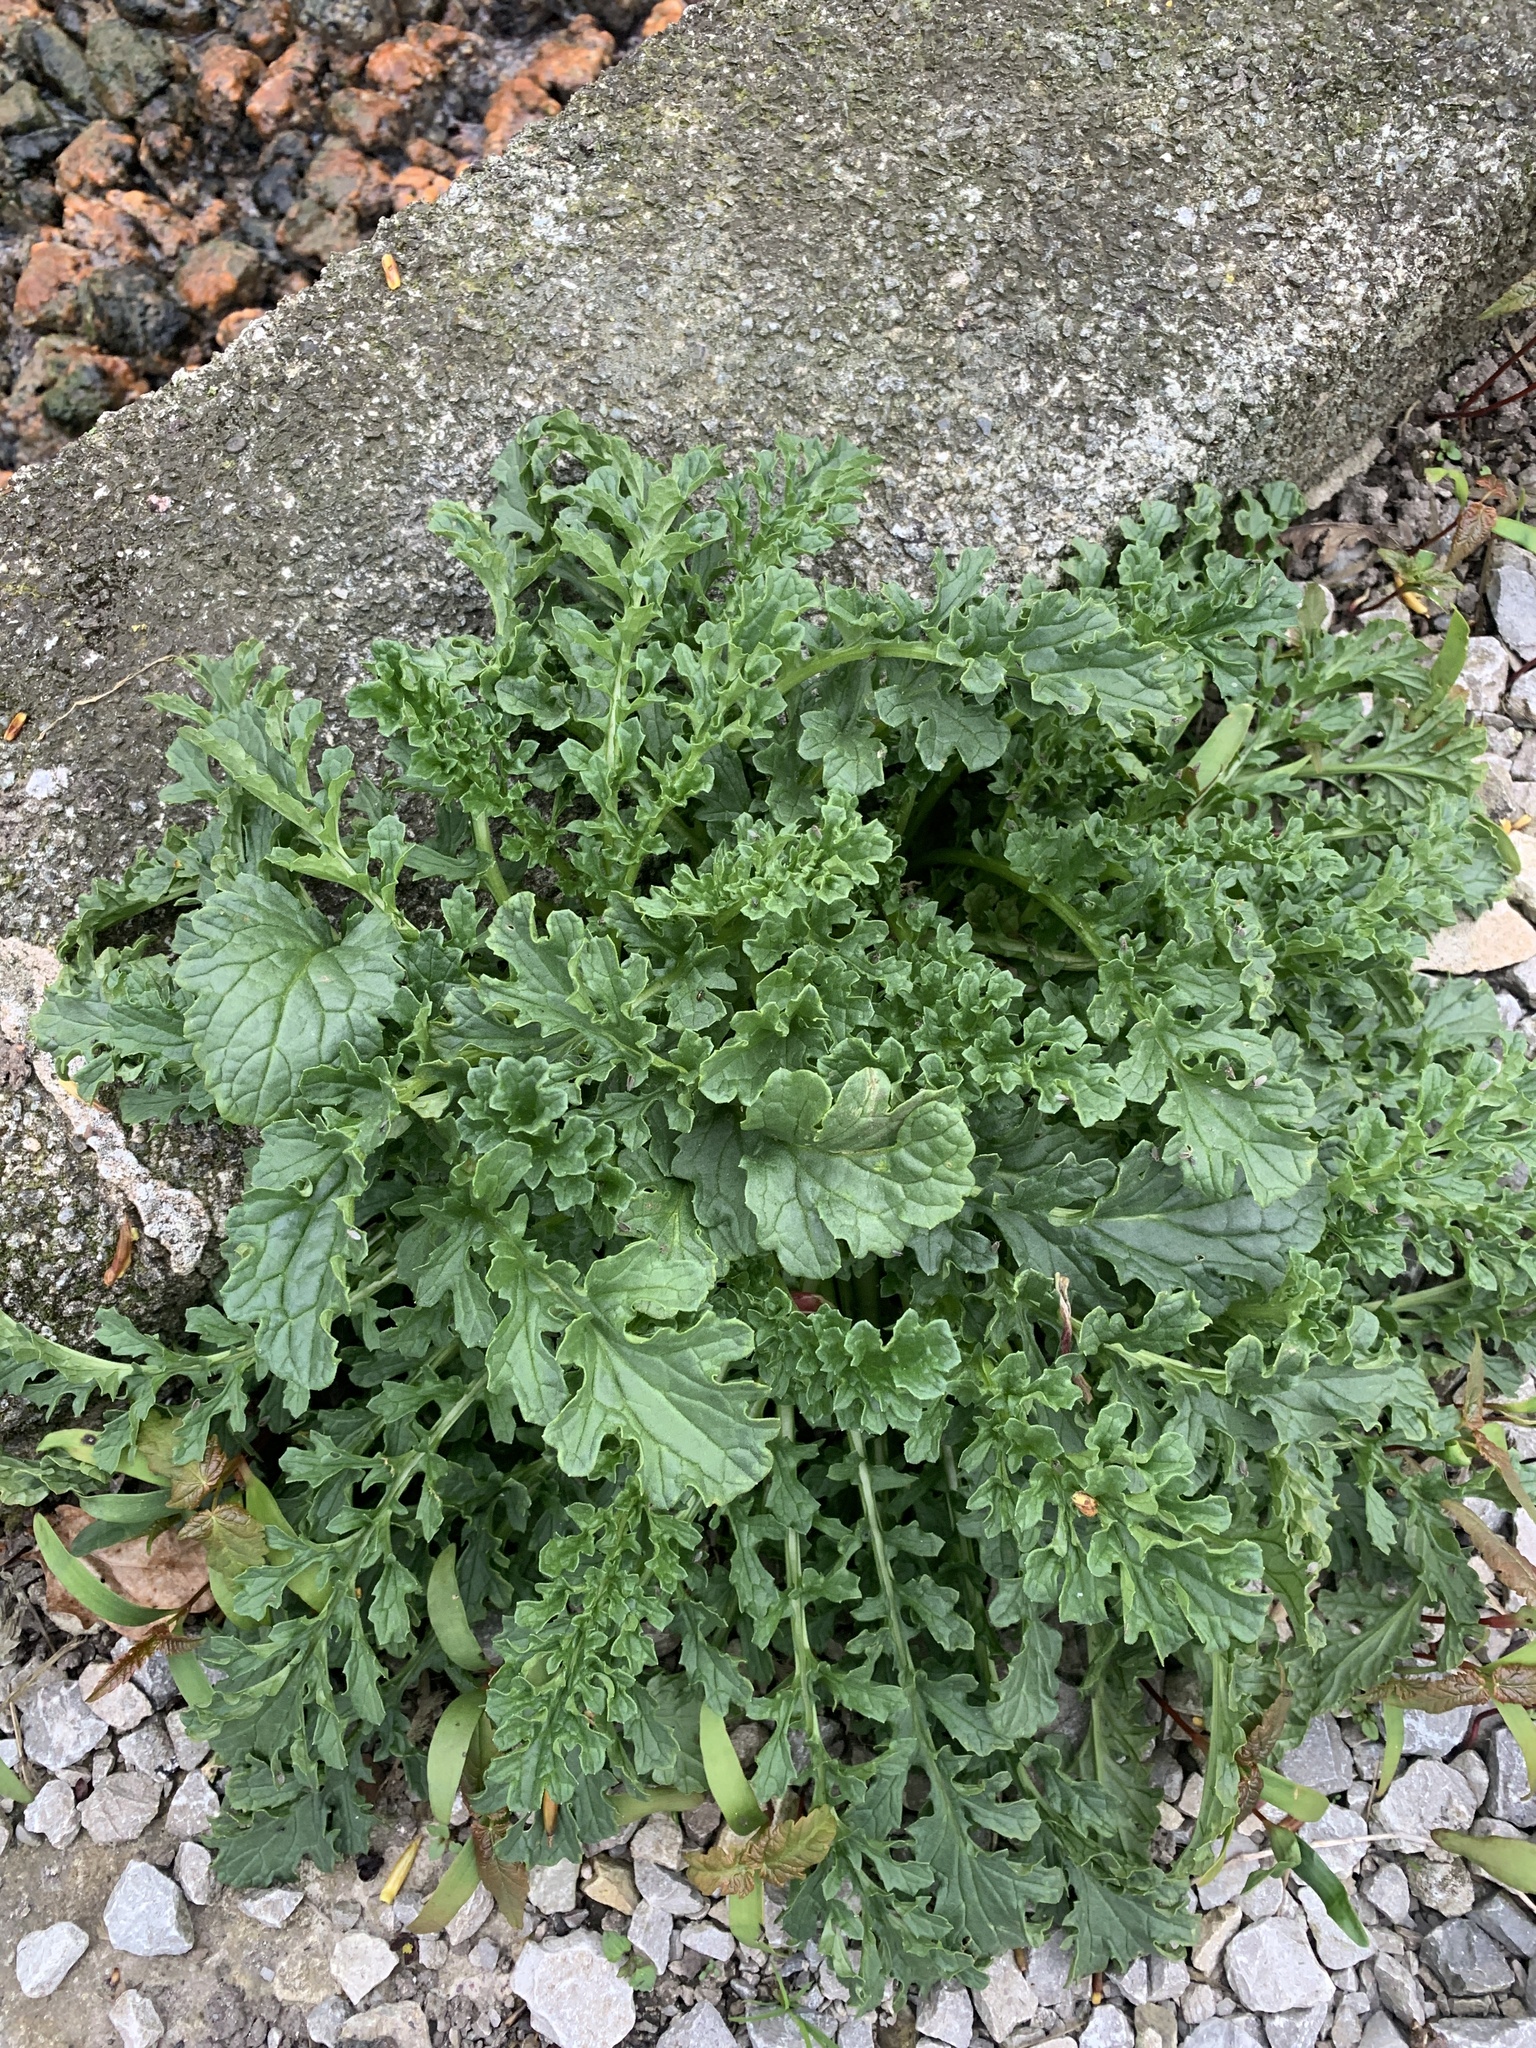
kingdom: Plantae
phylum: Tracheophyta
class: Magnoliopsida
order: Asterales
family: Asteraceae
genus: Jacobaea
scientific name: Jacobaea vulgaris
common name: Stinking willie
